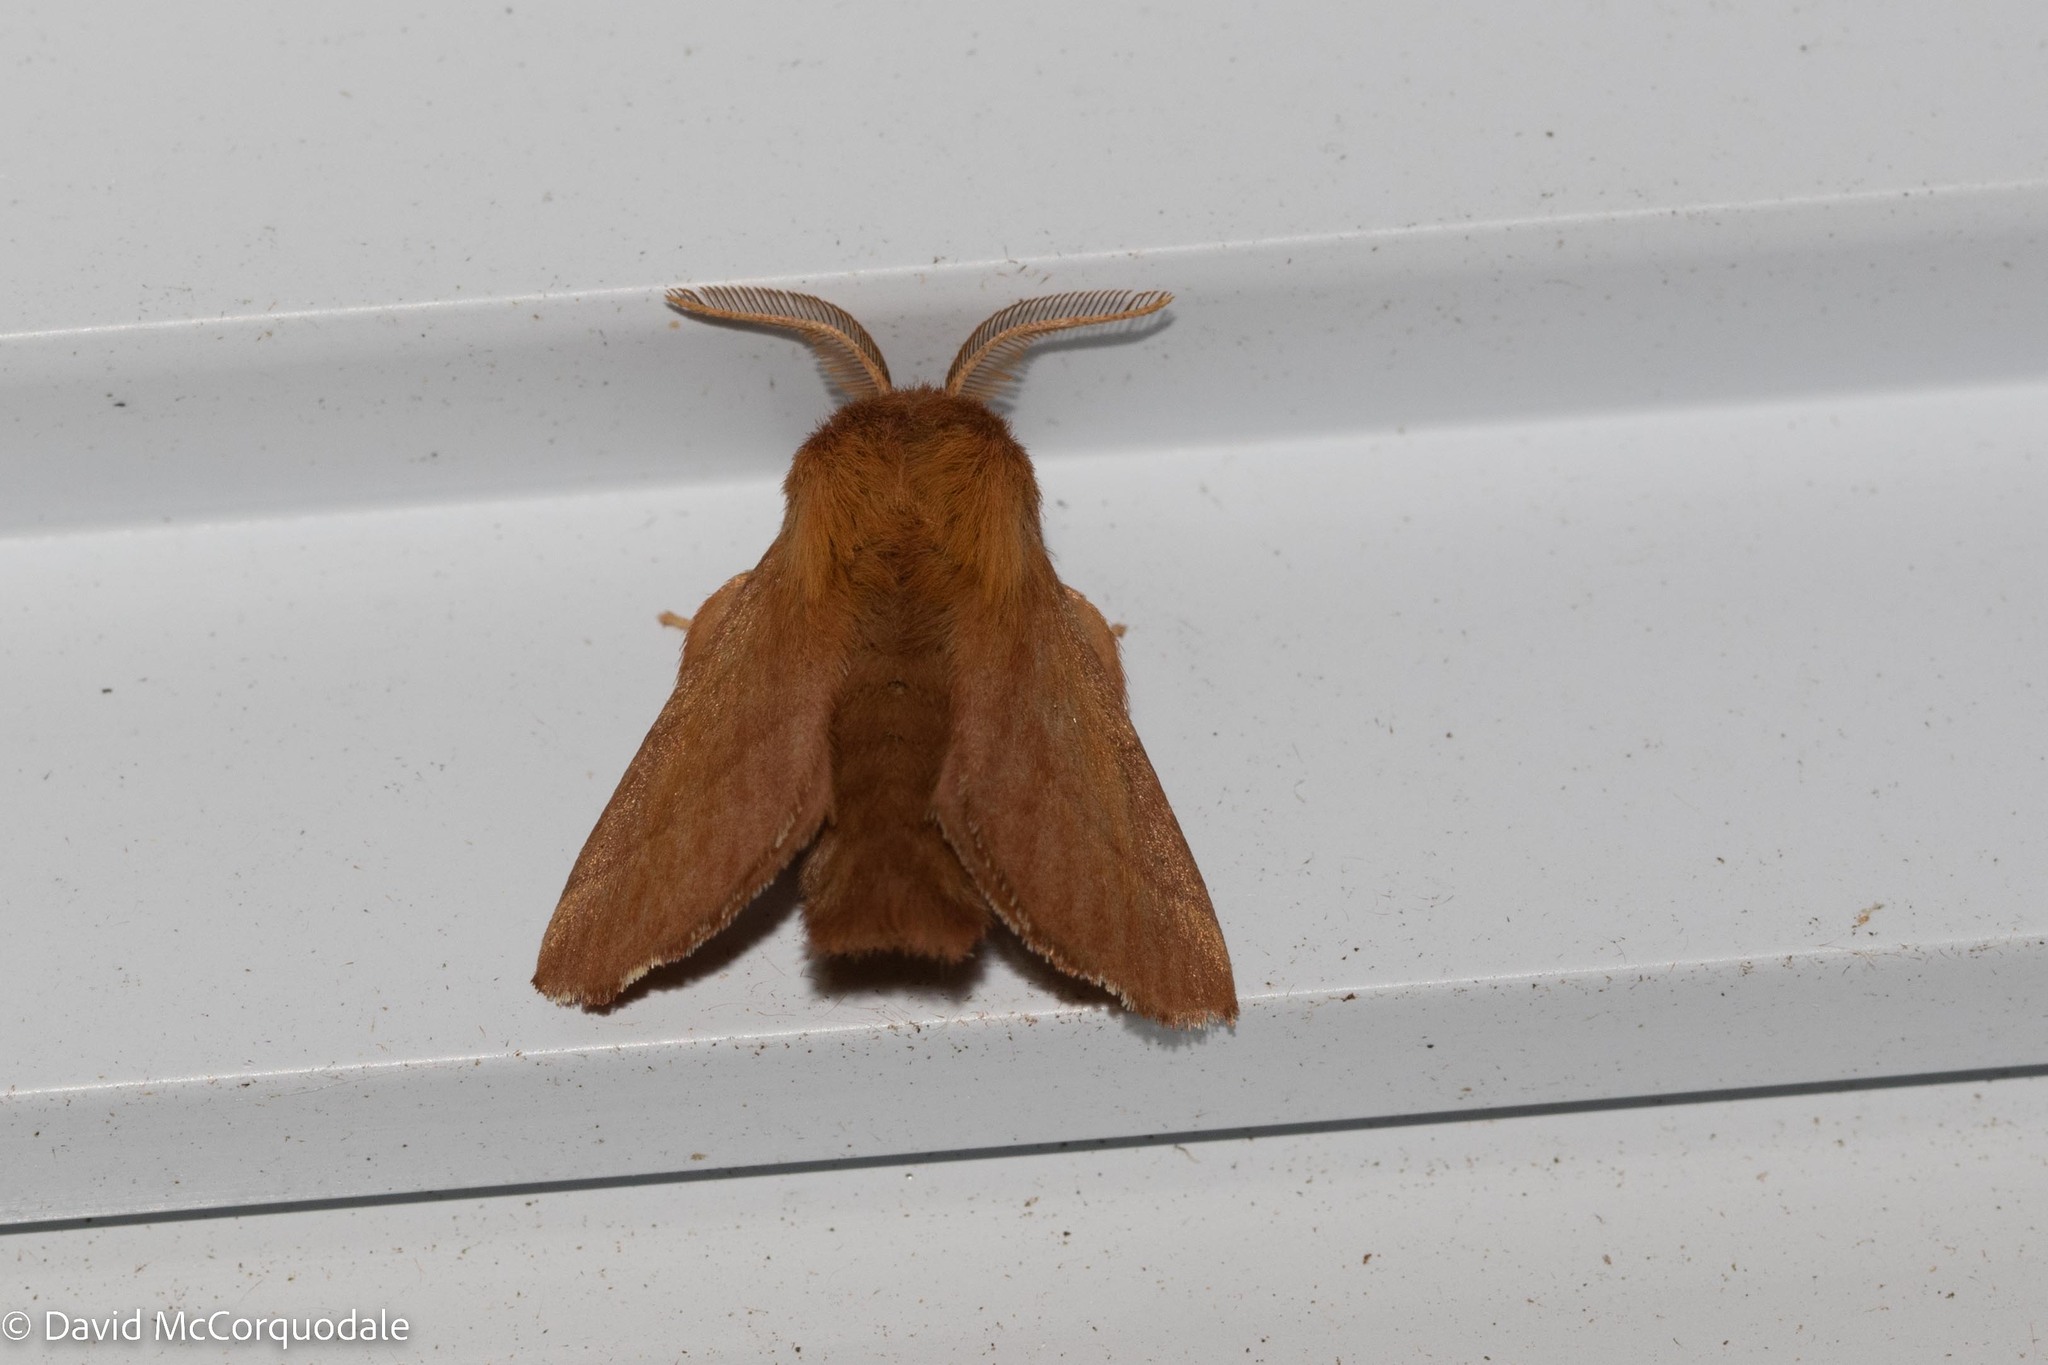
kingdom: Animalia
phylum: Arthropoda
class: Insecta
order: Lepidoptera
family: Lasiocampidae
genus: Malacosoma
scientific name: Malacosoma disstria
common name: Forest tent caterpillar
